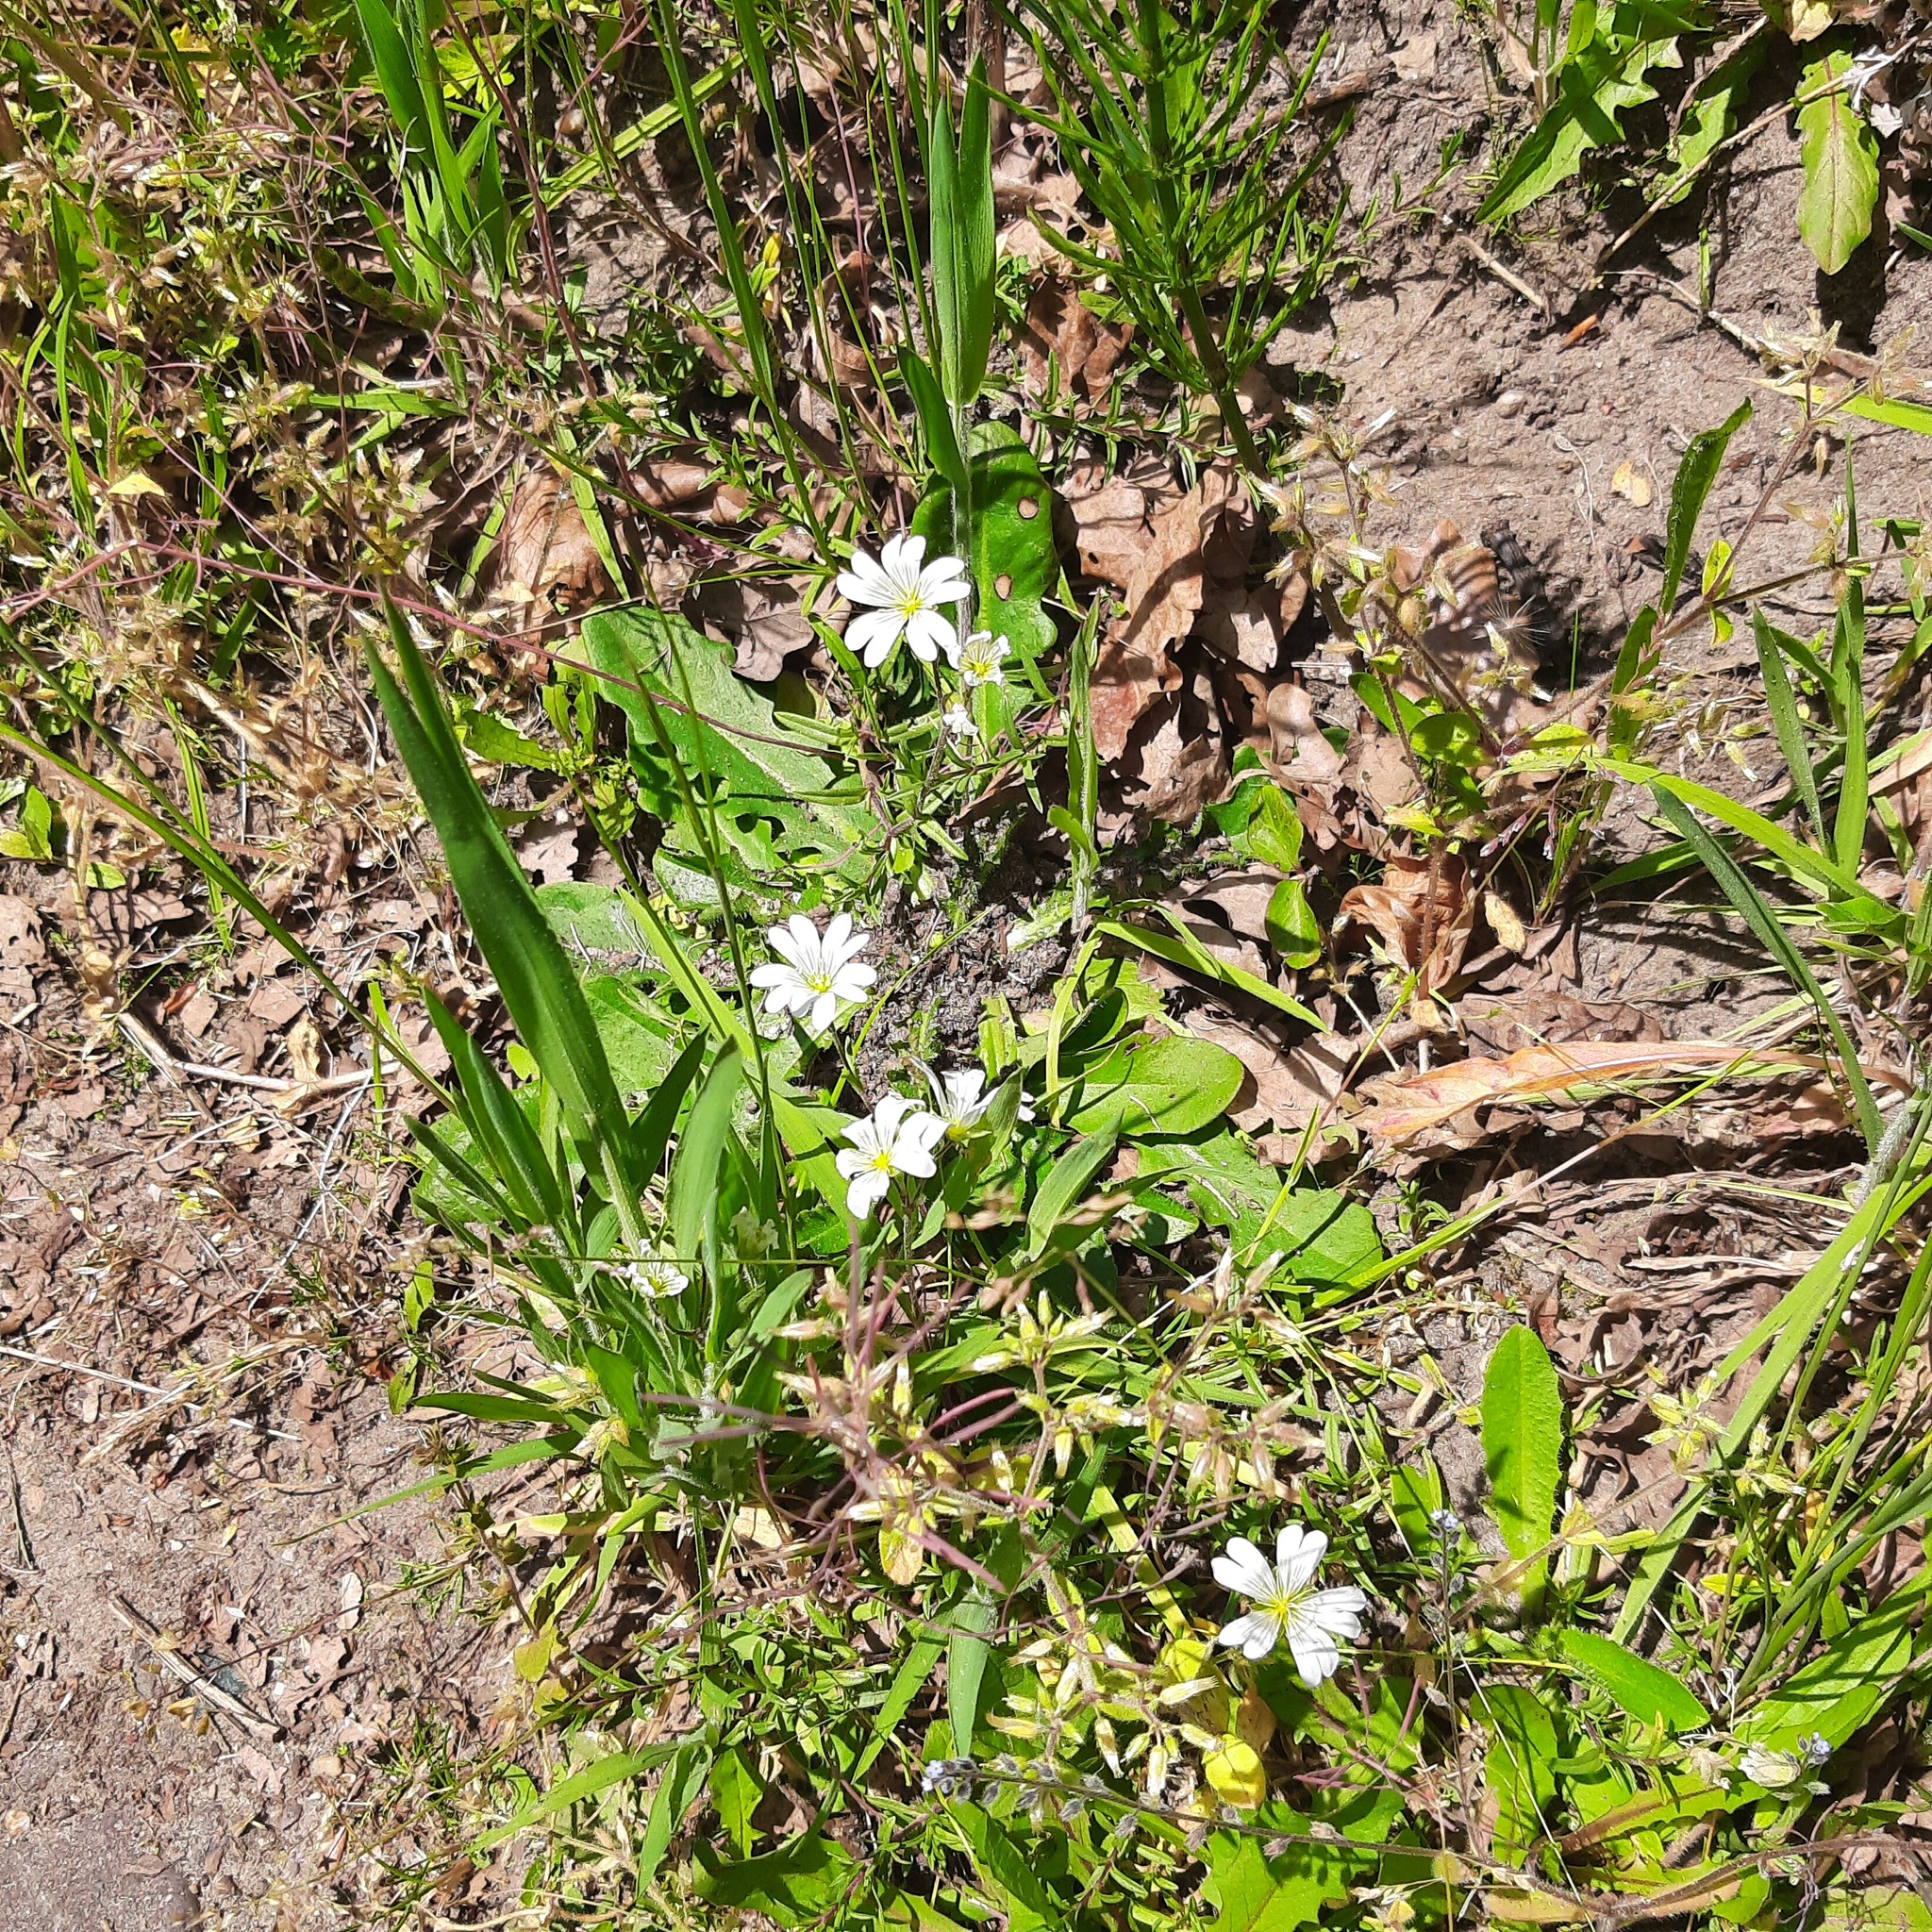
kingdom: Plantae
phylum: Tracheophyta
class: Magnoliopsida
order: Caryophyllales
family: Caryophyllaceae
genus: Rabelera
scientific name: Rabelera holostea
